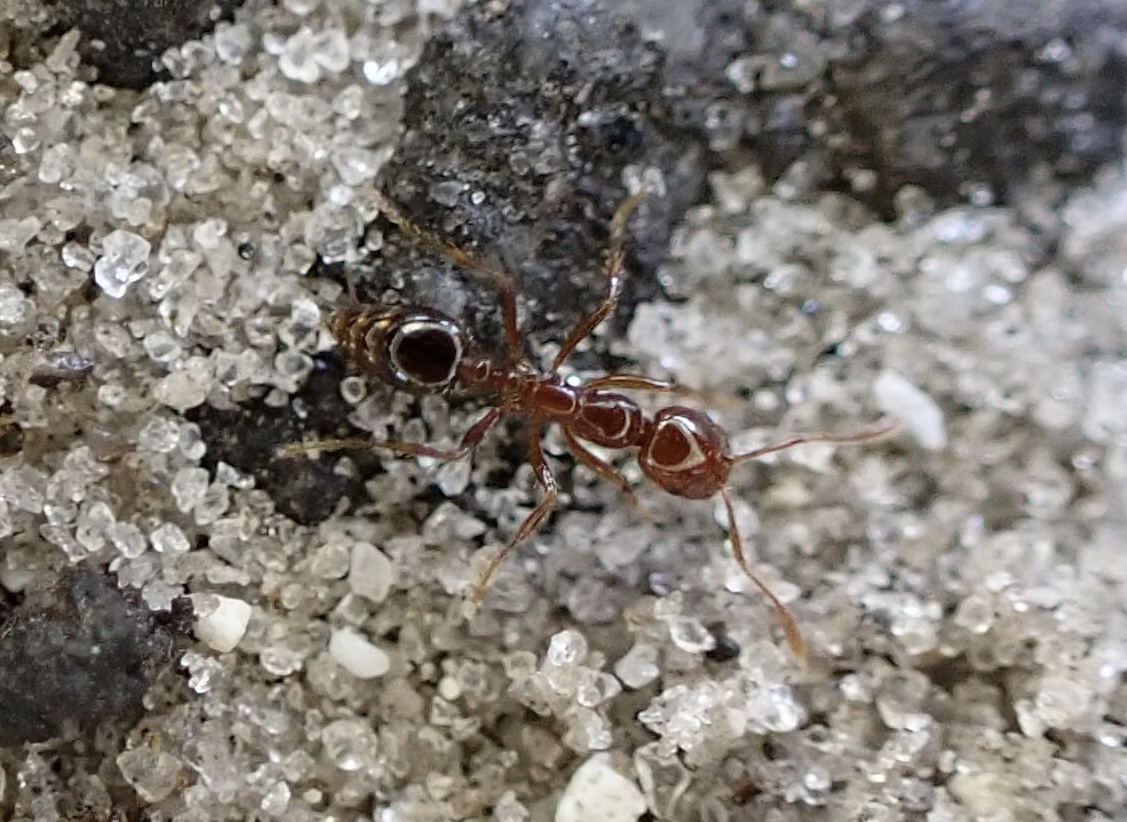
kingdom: Animalia
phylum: Arthropoda
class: Insecta
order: Hymenoptera
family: Formicidae
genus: Solenopsis
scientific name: Solenopsis invicta
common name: Red imported fire ant
